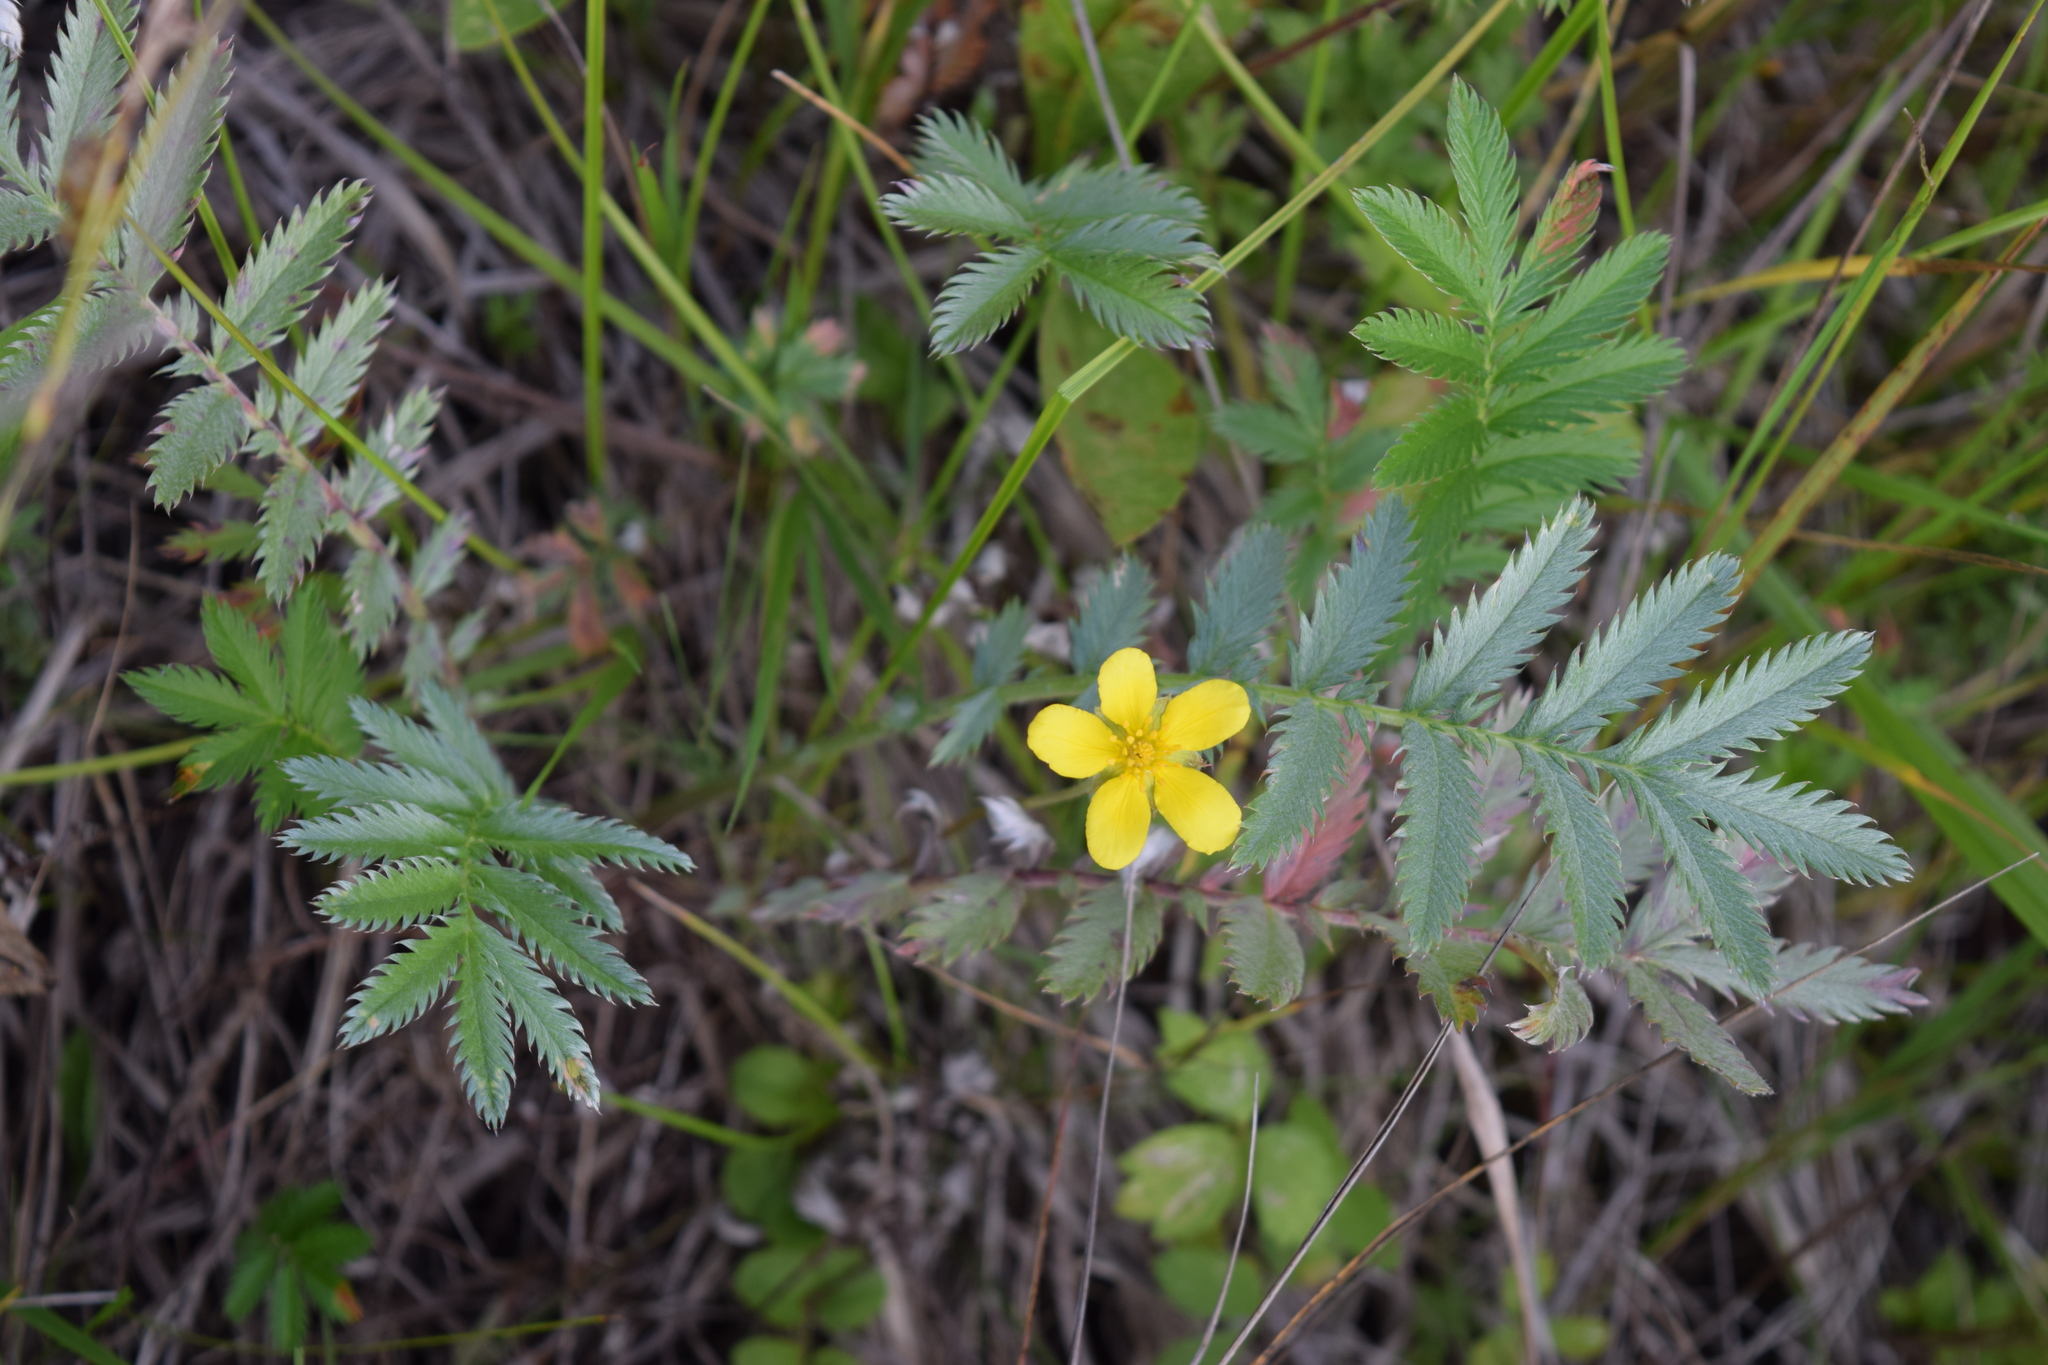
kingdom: Plantae
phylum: Tracheophyta
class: Magnoliopsida
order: Rosales
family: Rosaceae
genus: Argentina
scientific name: Argentina anserina
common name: Common silverweed
